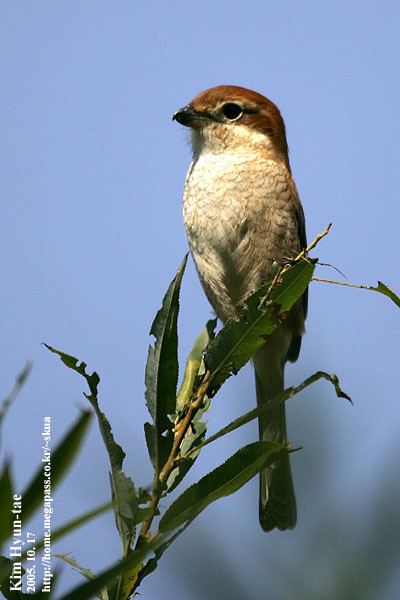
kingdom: Animalia
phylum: Chordata
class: Aves
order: Passeriformes
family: Laniidae
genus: Lanius
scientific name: Lanius bucephalus
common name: Bull-headed shrike
